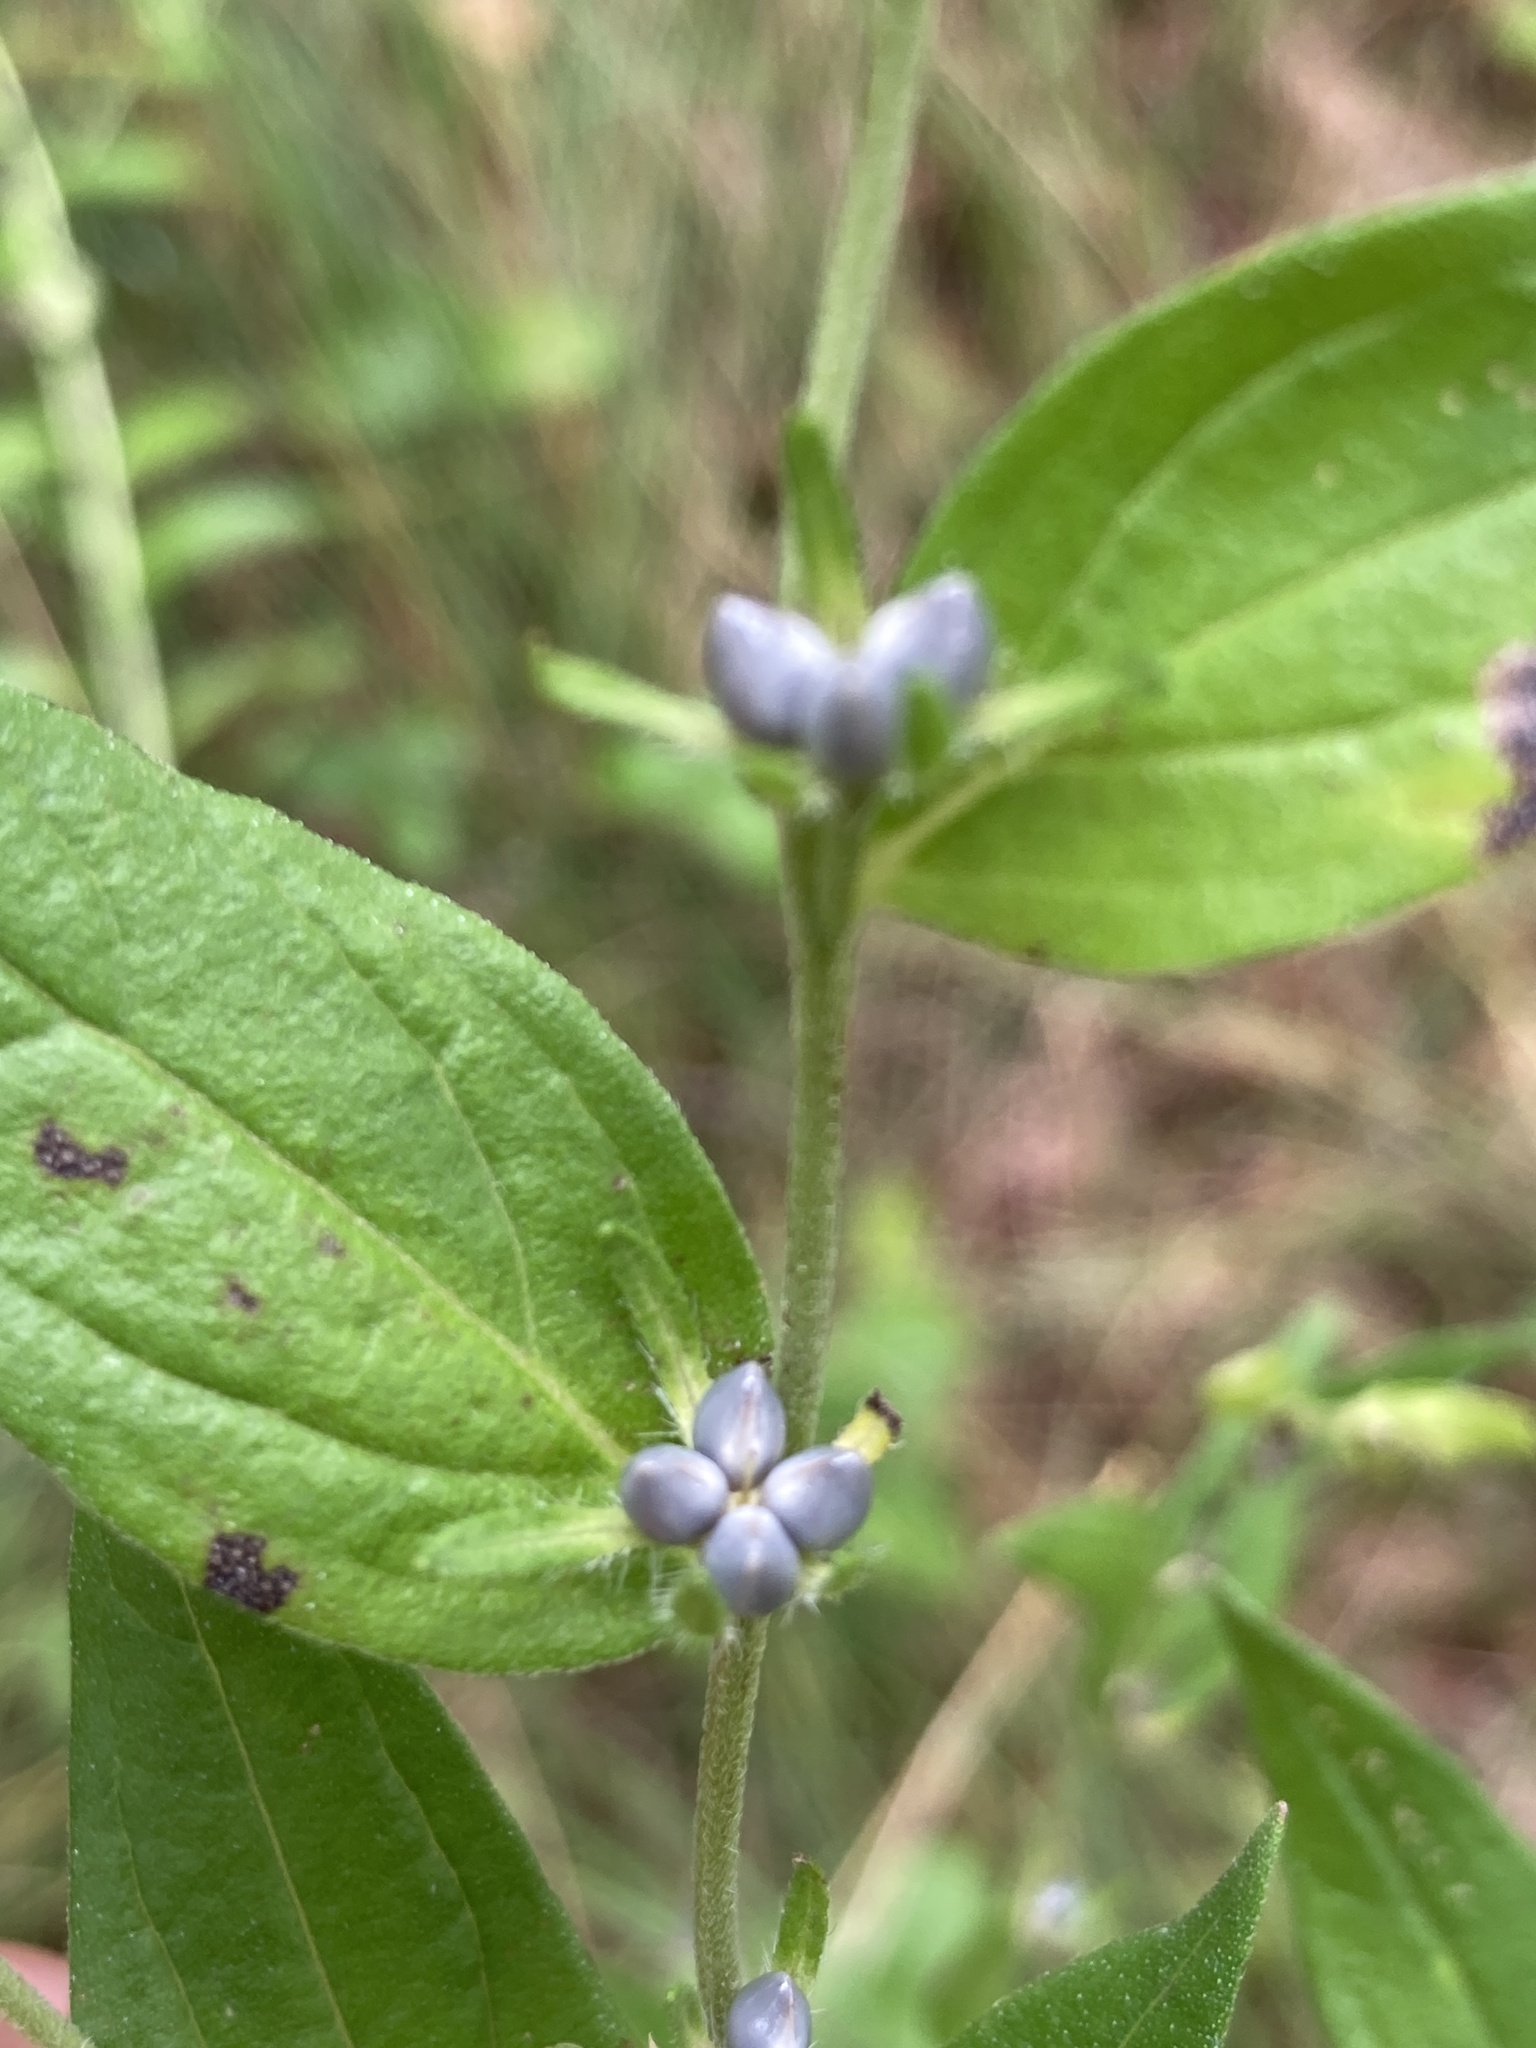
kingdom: Plantae
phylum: Tracheophyta
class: Magnoliopsida
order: Boraginales
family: Boraginaceae
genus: Lithospermum
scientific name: Lithospermum officinale
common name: Common gromwell
